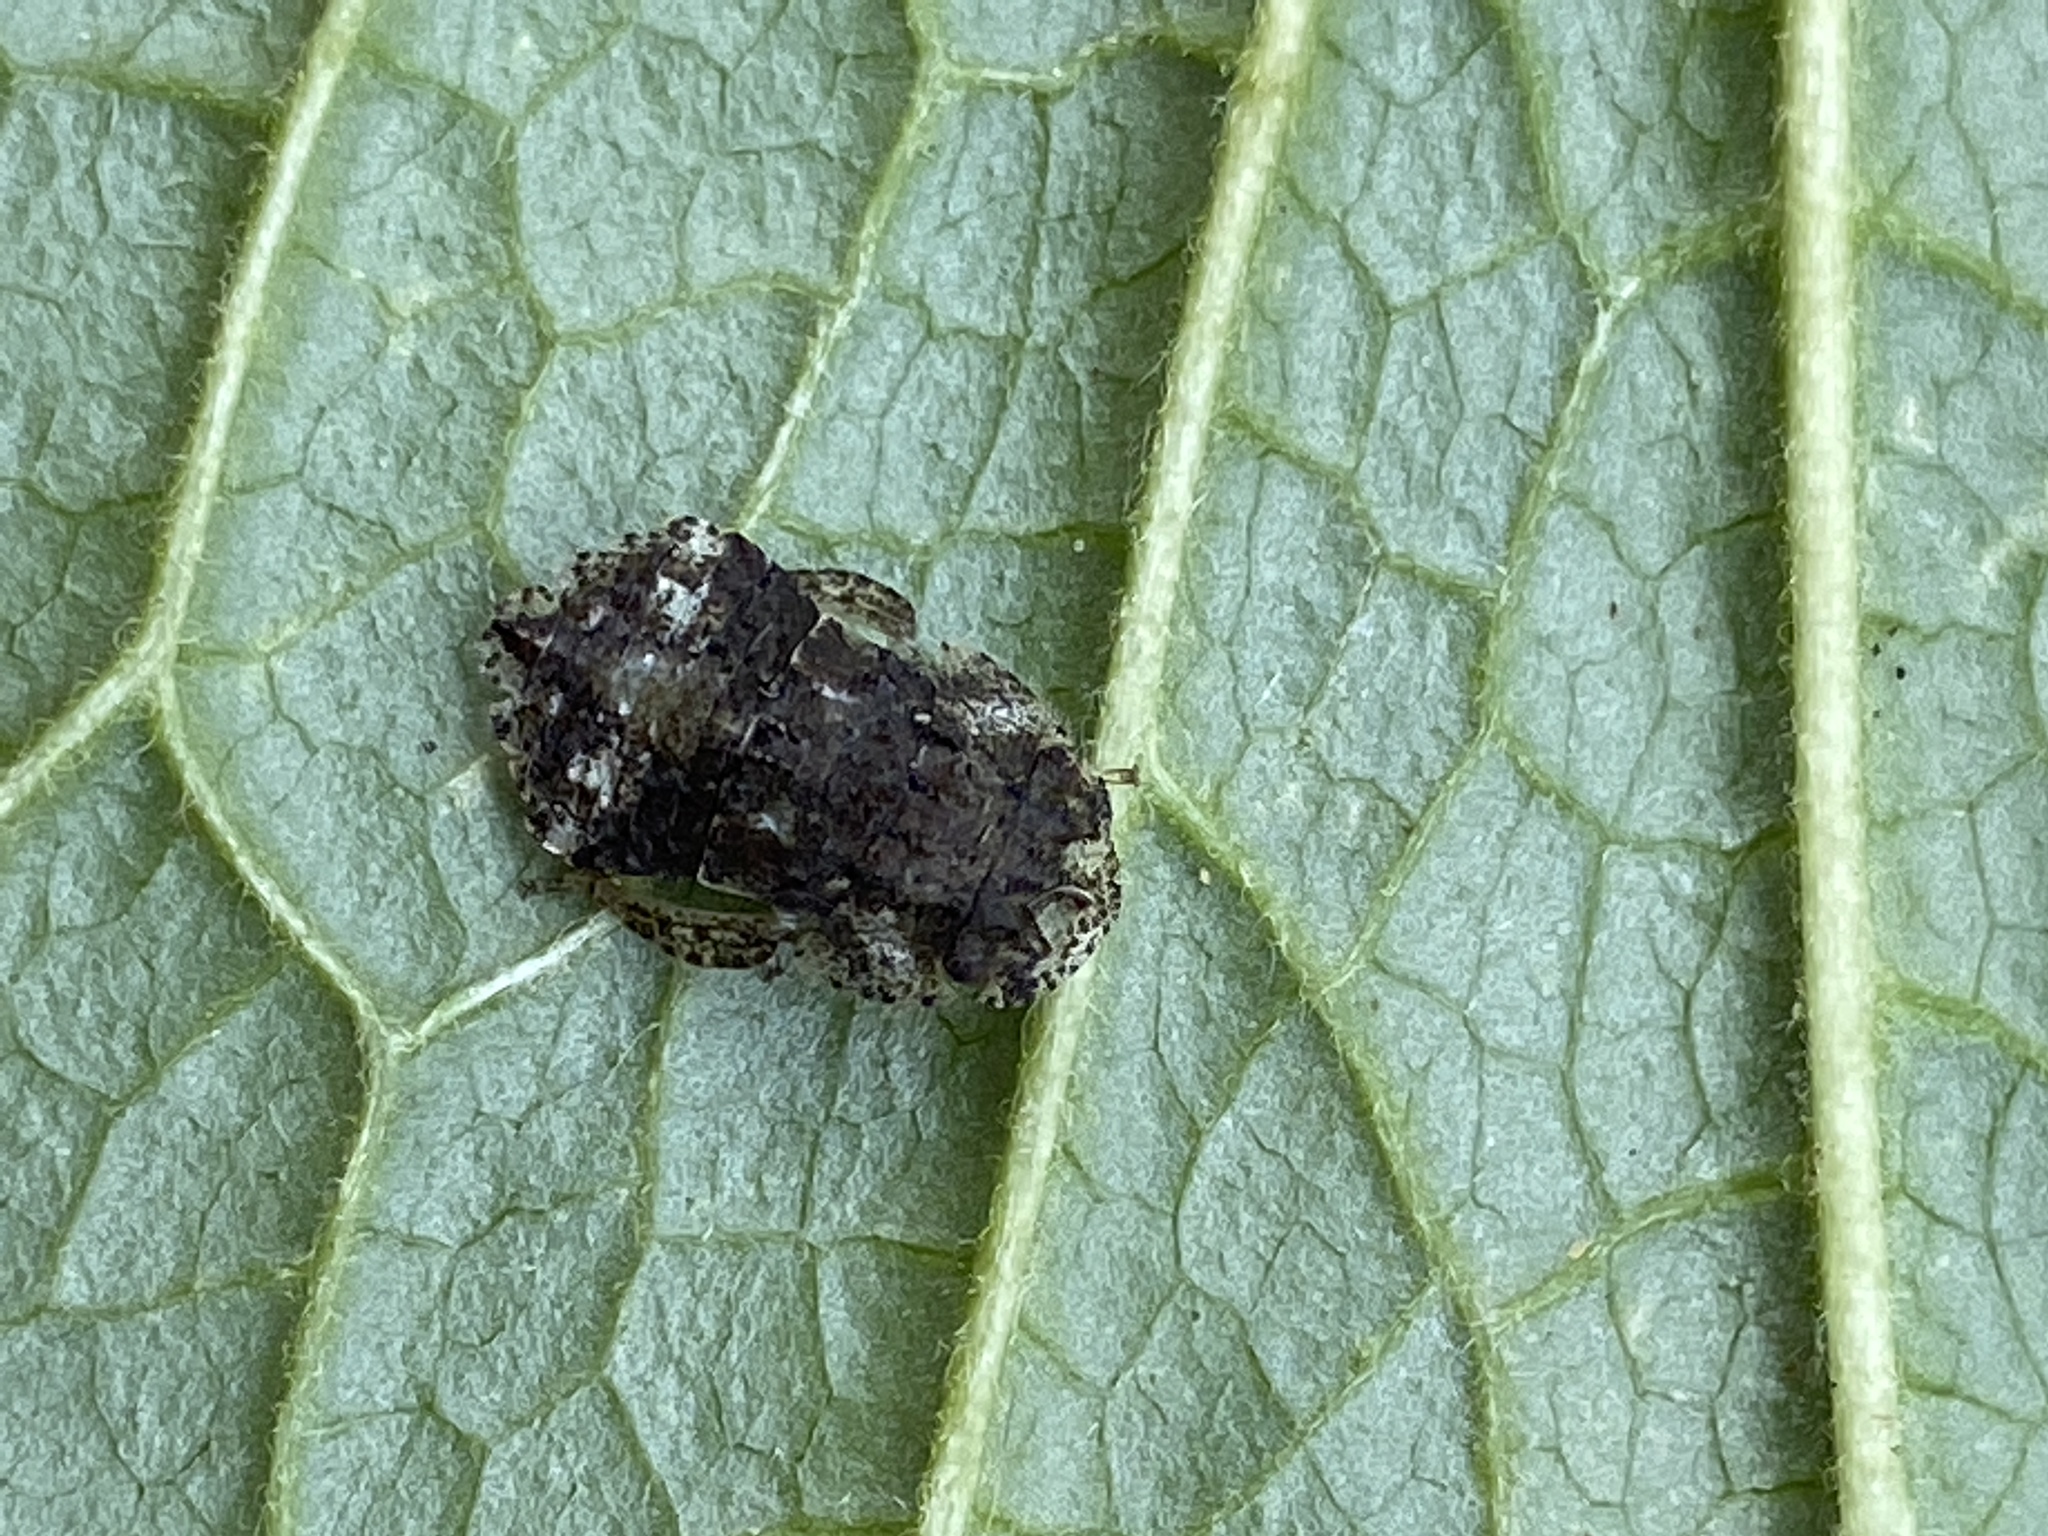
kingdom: Animalia
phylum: Arthropoda
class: Insecta
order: Hemiptera
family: Cicadellidae
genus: Ledra
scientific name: Ledra aurita
